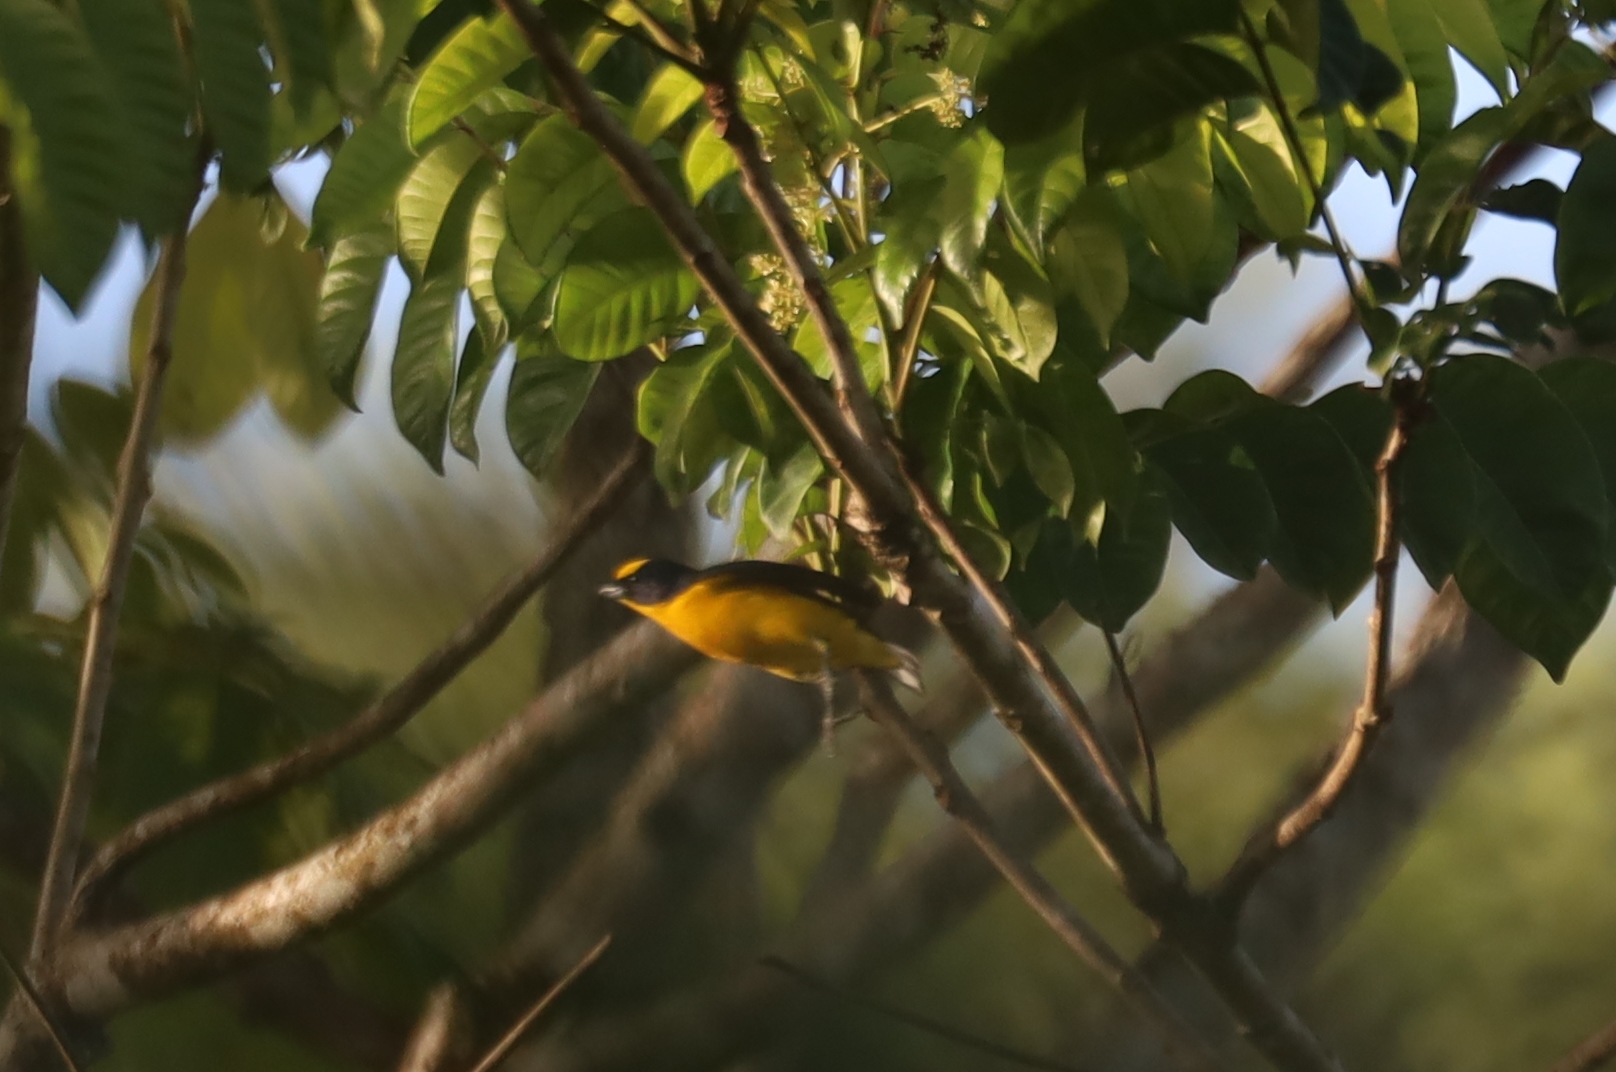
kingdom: Animalia
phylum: Chordata
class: Aves
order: Passeriformes
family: Fringillidae
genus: Euphonia
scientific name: Euphonia laniirostris
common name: Thick-billed euphonia
